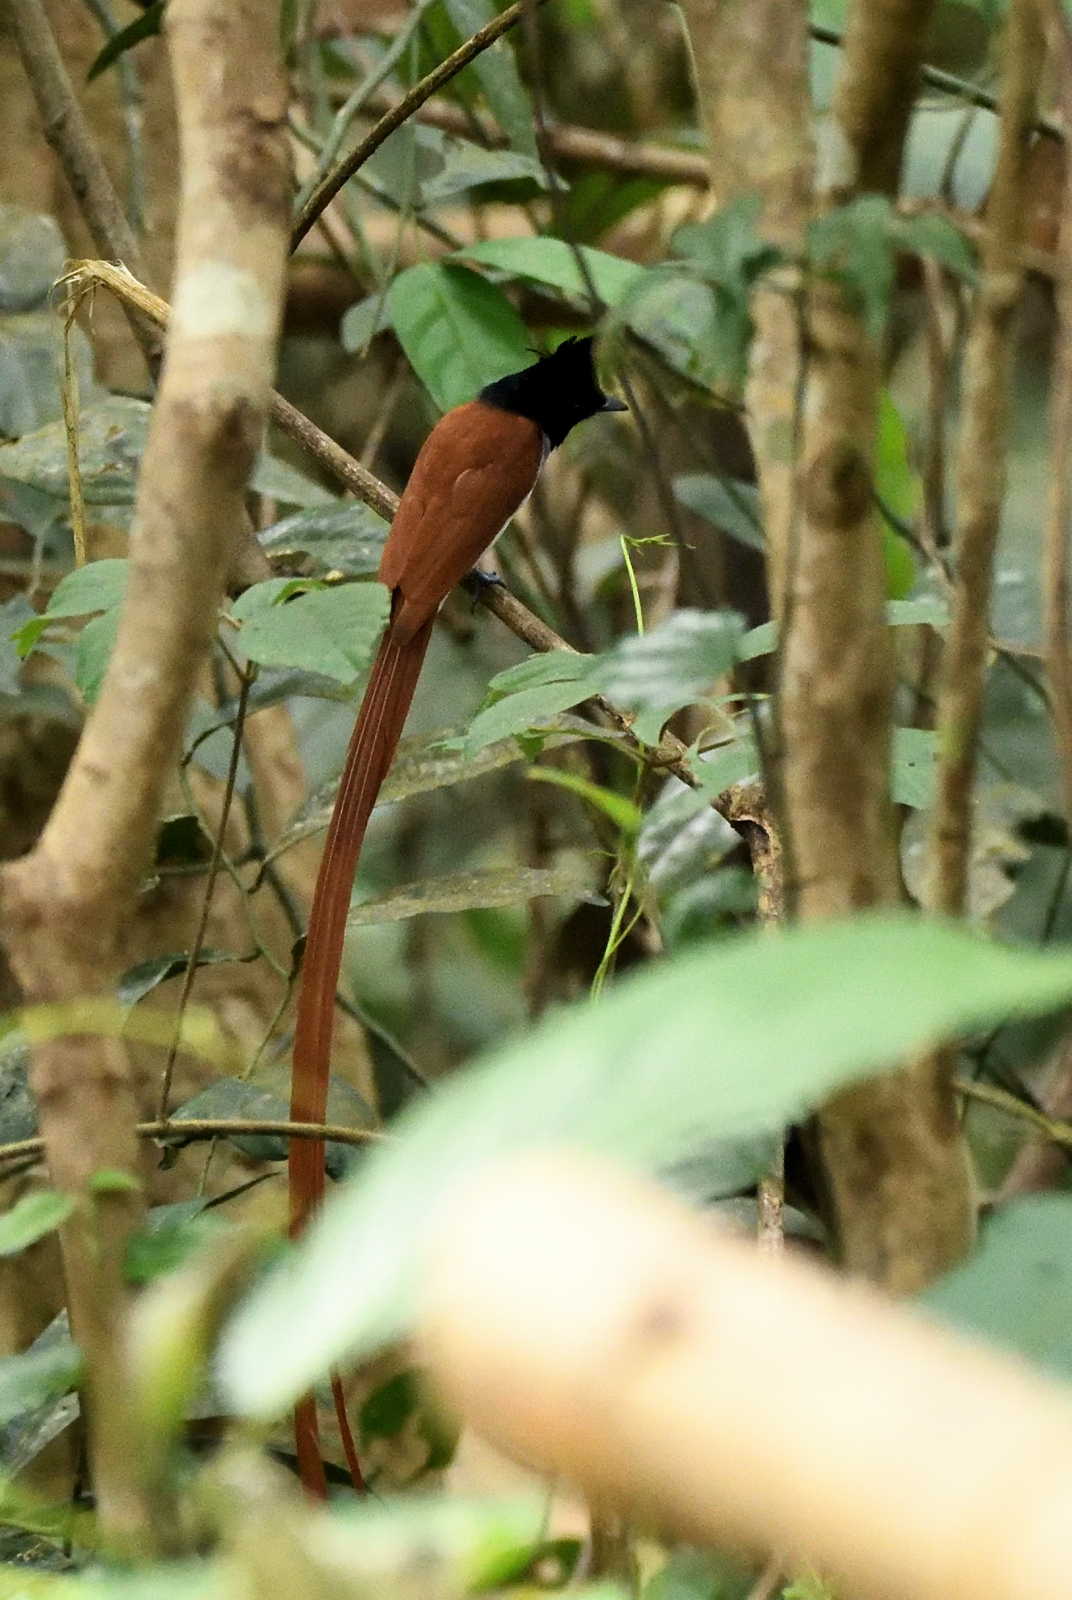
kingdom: Animalia
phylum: Chordata
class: Aves
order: Passeriformes
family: Monarchidae
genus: Terpsiphone
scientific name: Terpsiphone paradisi
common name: Indian paradise flycatcher
